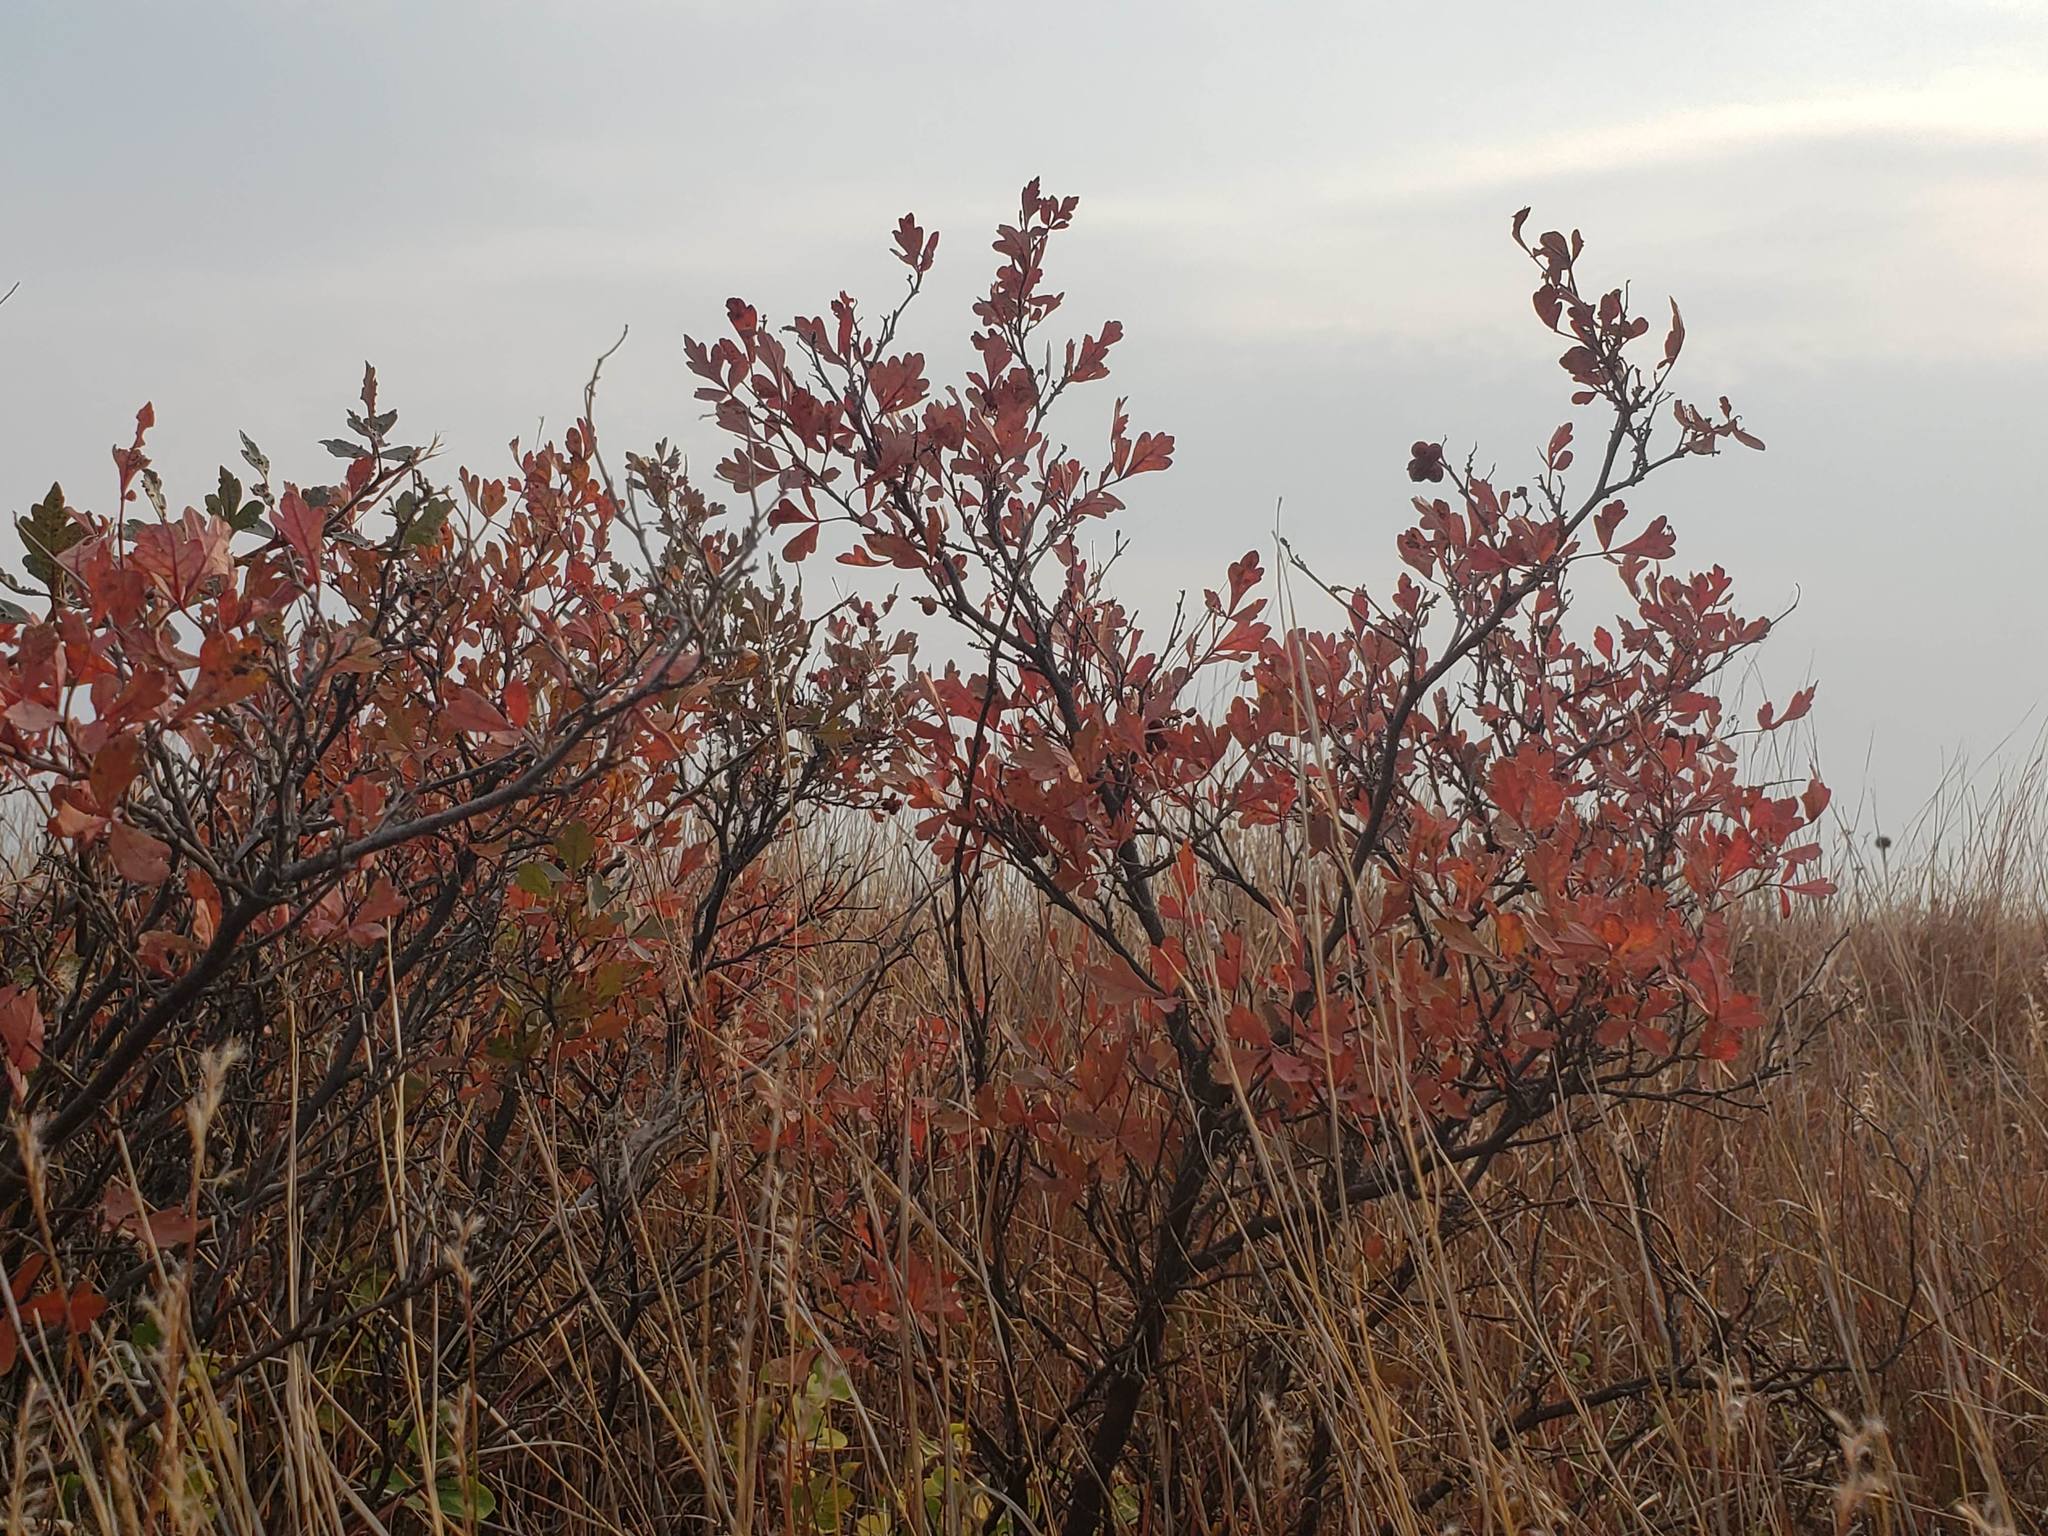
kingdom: Plantae
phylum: Tracheophyta
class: Magnoliopsida
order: Sapindales
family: Anacardiaceae
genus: Rhus
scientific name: Rhus trilobata
